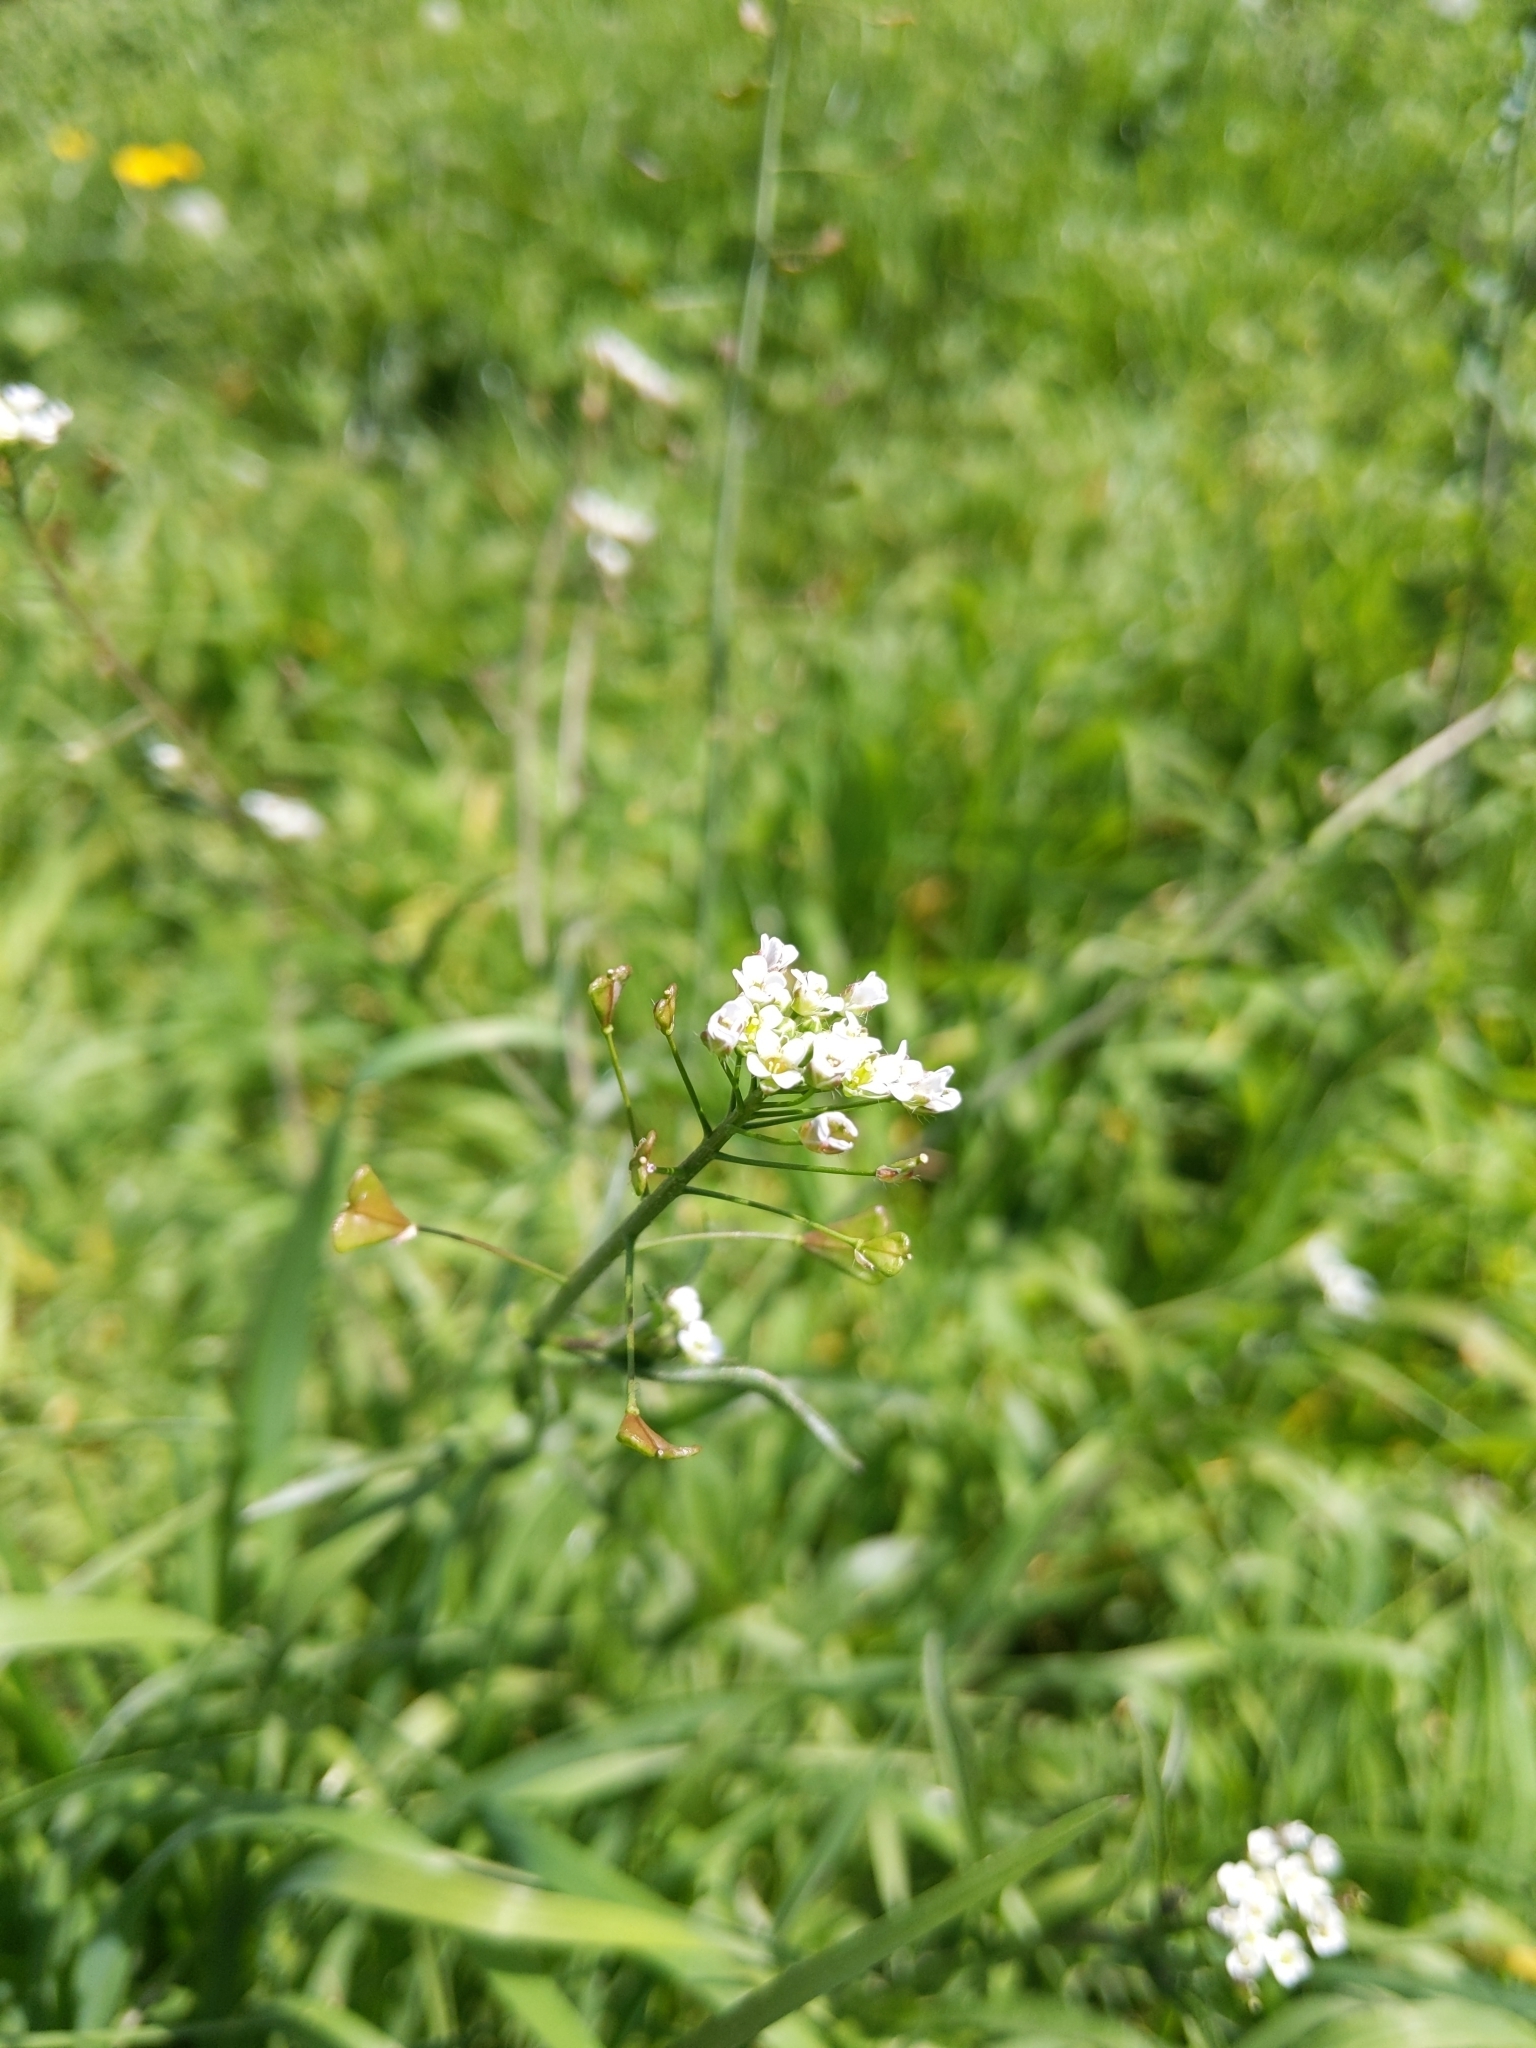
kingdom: Plantae
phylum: Tracheophyta
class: Magnoliopsida
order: Brassicales
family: Brassicaceae
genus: Capsella
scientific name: Capsella bursa-pastoris
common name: Shepherd's purse
